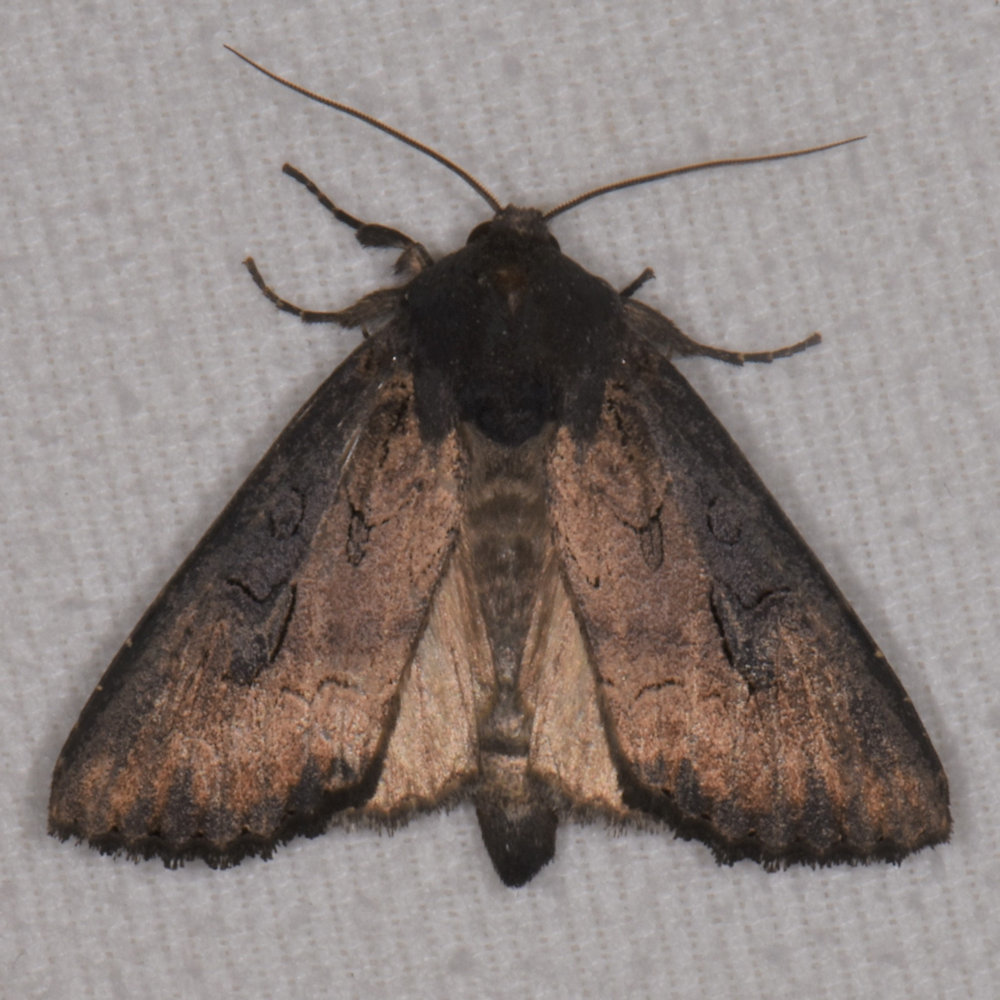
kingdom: Animalia
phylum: Arthropoda
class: Insecta
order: Lepidoptera
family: Noctuidae
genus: Macronoctua
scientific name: Macronoctua onusta
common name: Iris borer
